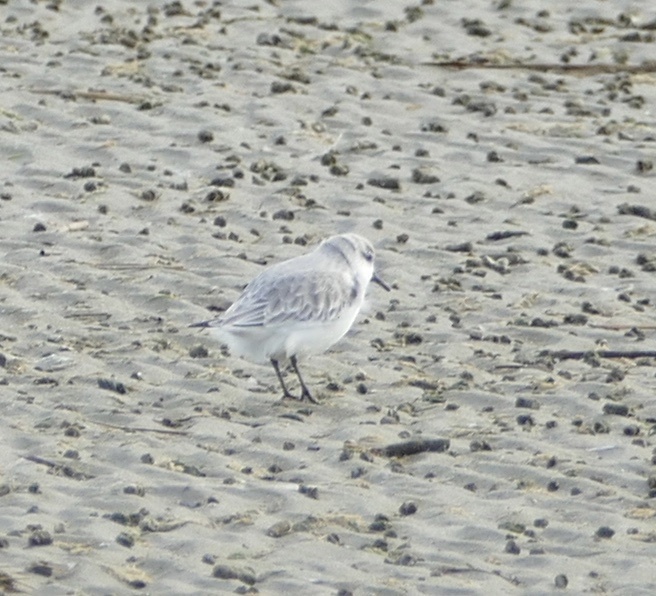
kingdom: Animalia
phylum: Chordata
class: Aves
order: Charadriiformes
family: Scolopacidae
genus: Calidris
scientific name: Calidris alba
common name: Sanderling
